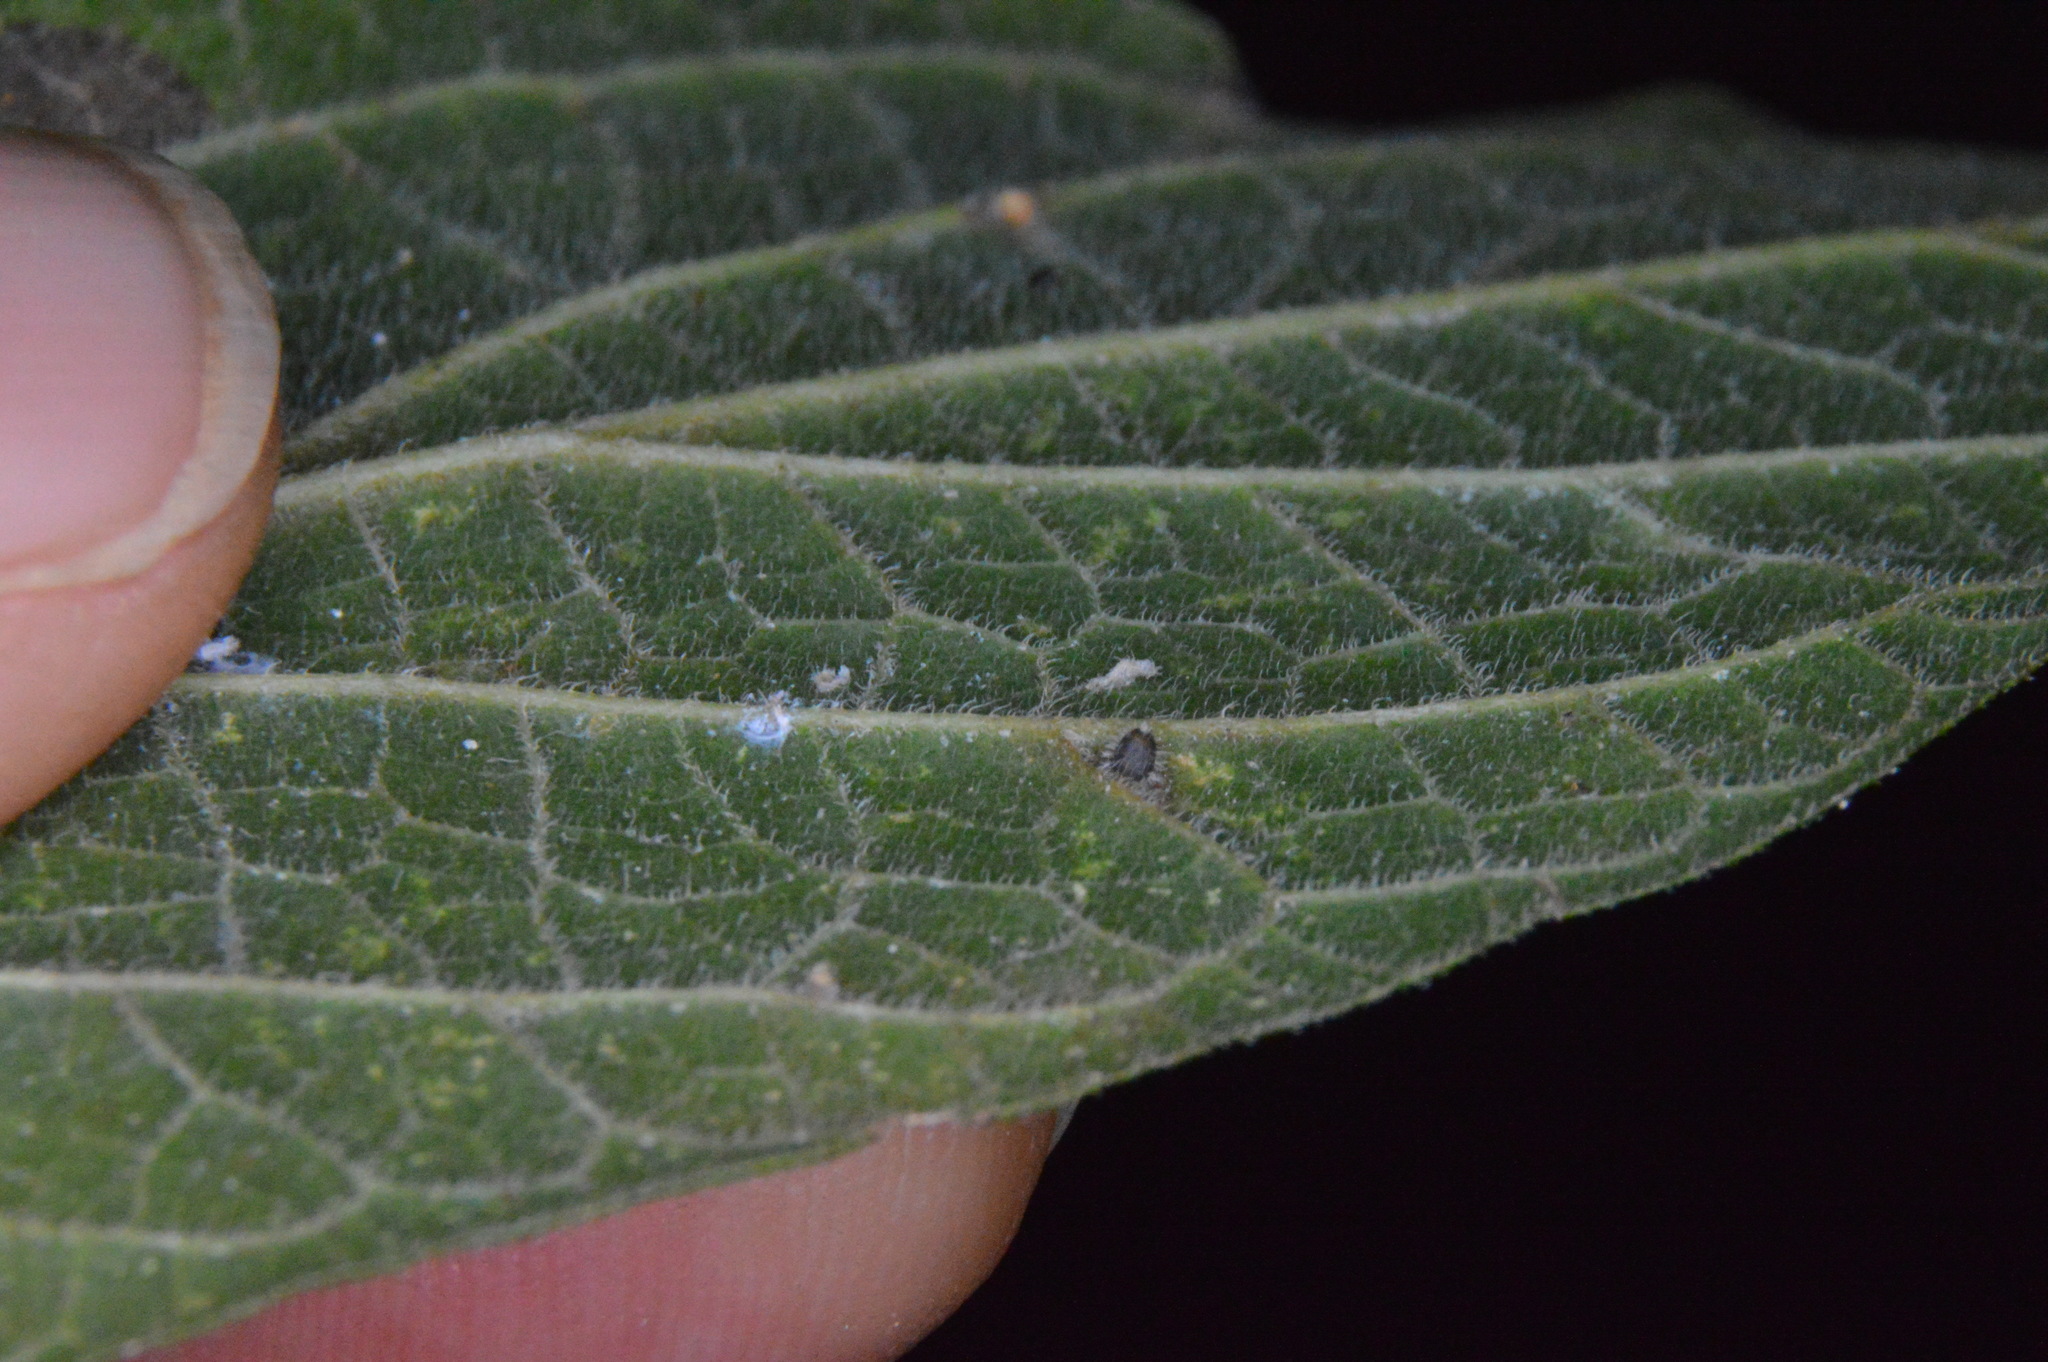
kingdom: Animalia
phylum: Arthropoda
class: Insecta
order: Diptera
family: Cecidomyiidae
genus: Celticecis
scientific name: Celticecis cupiformis
